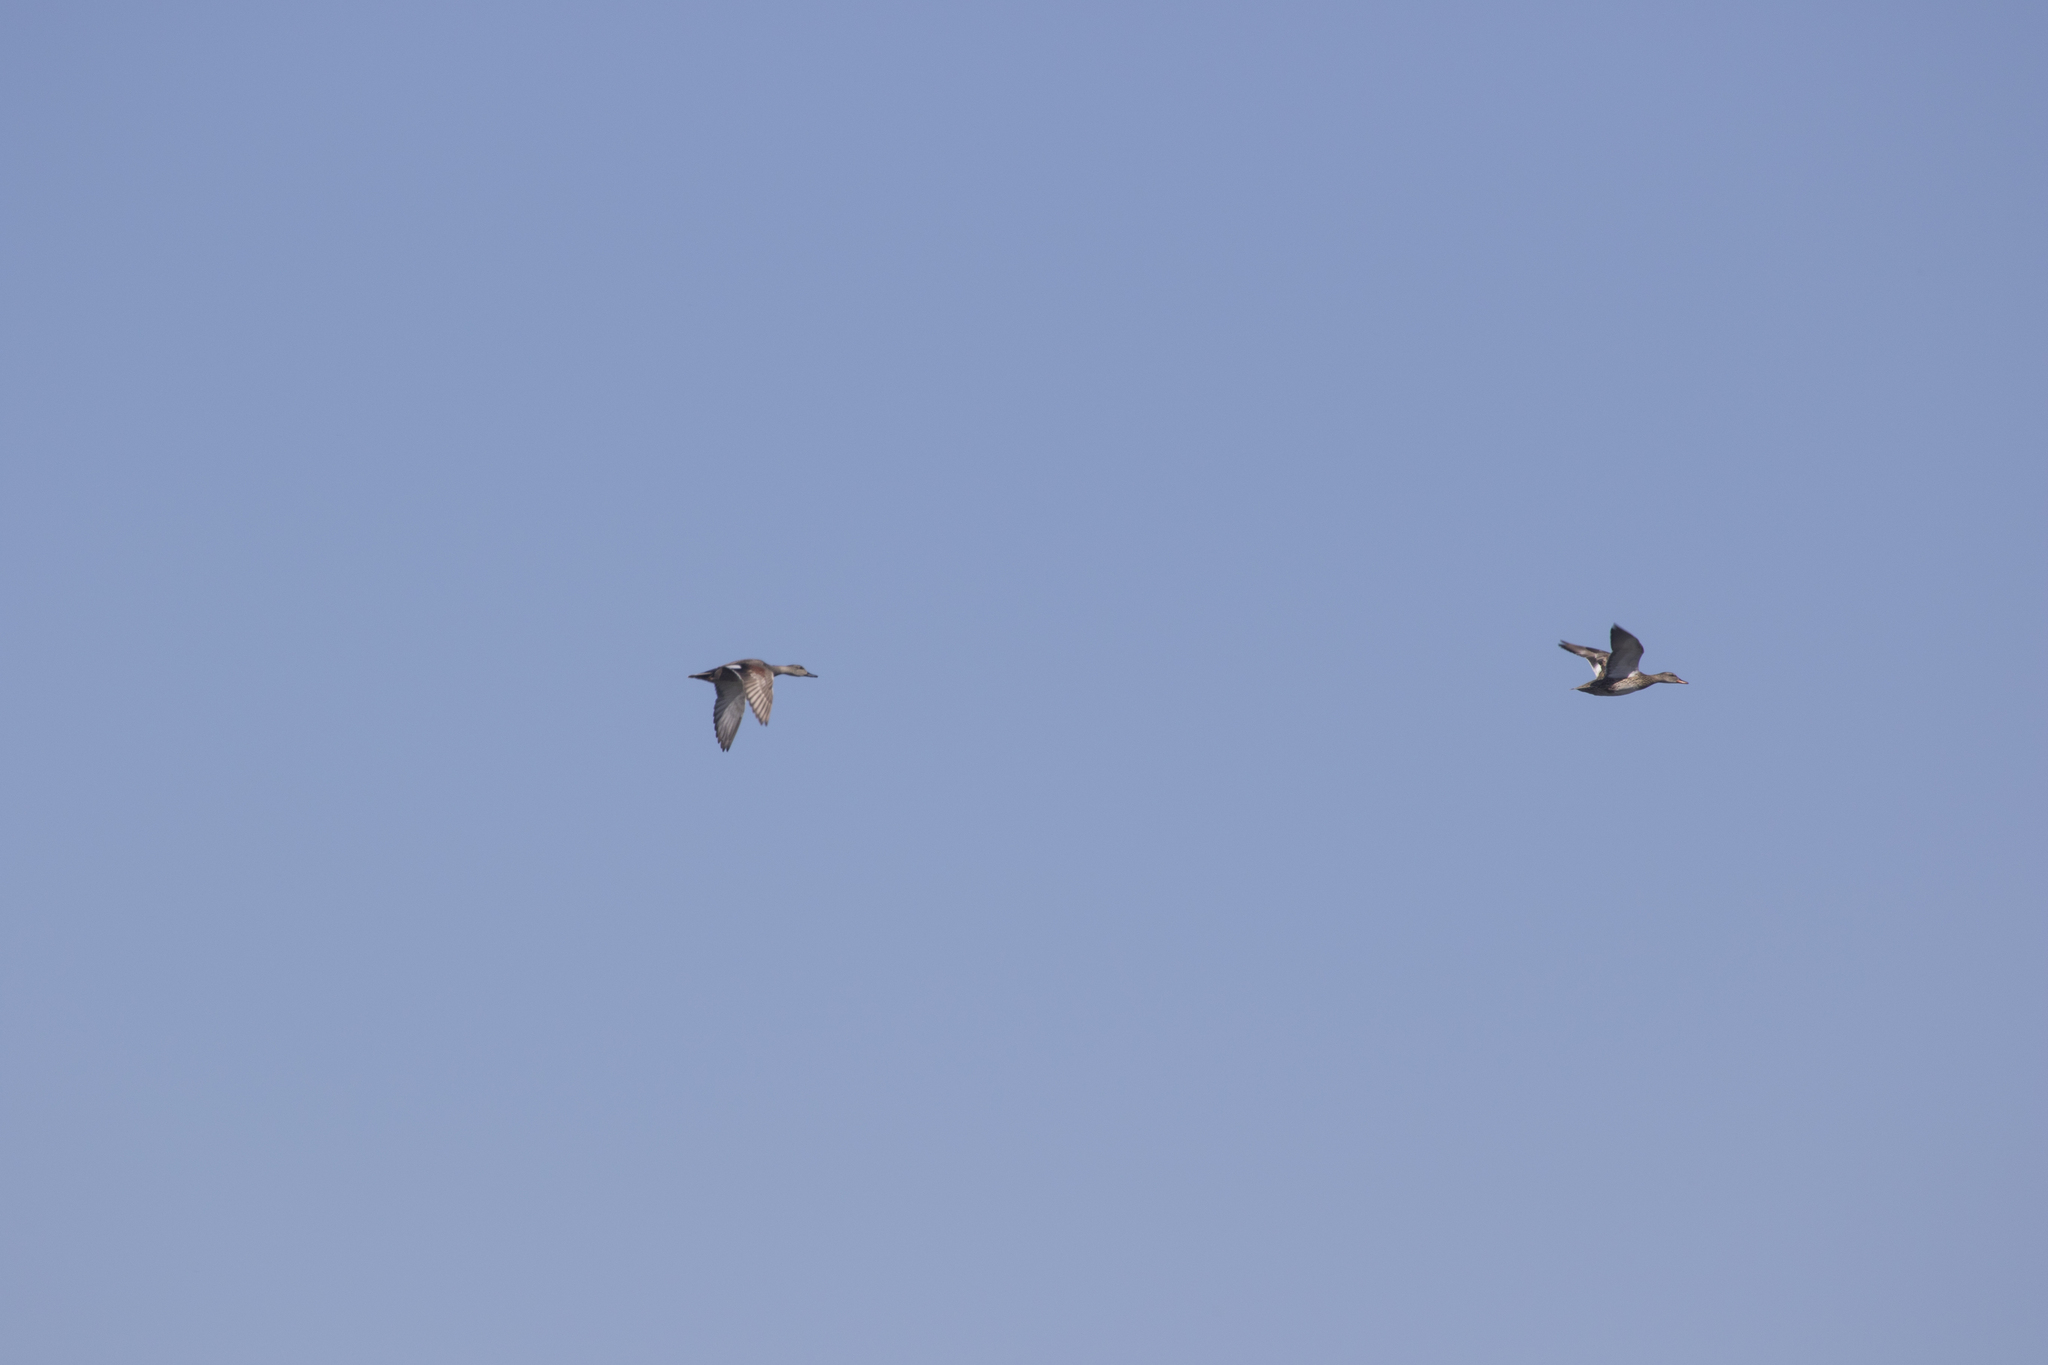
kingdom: Animalia
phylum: Chordata
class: Aves
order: Anseriformes
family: Anatidae
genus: Mareca
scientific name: Mareca strepera
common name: Gadwall
